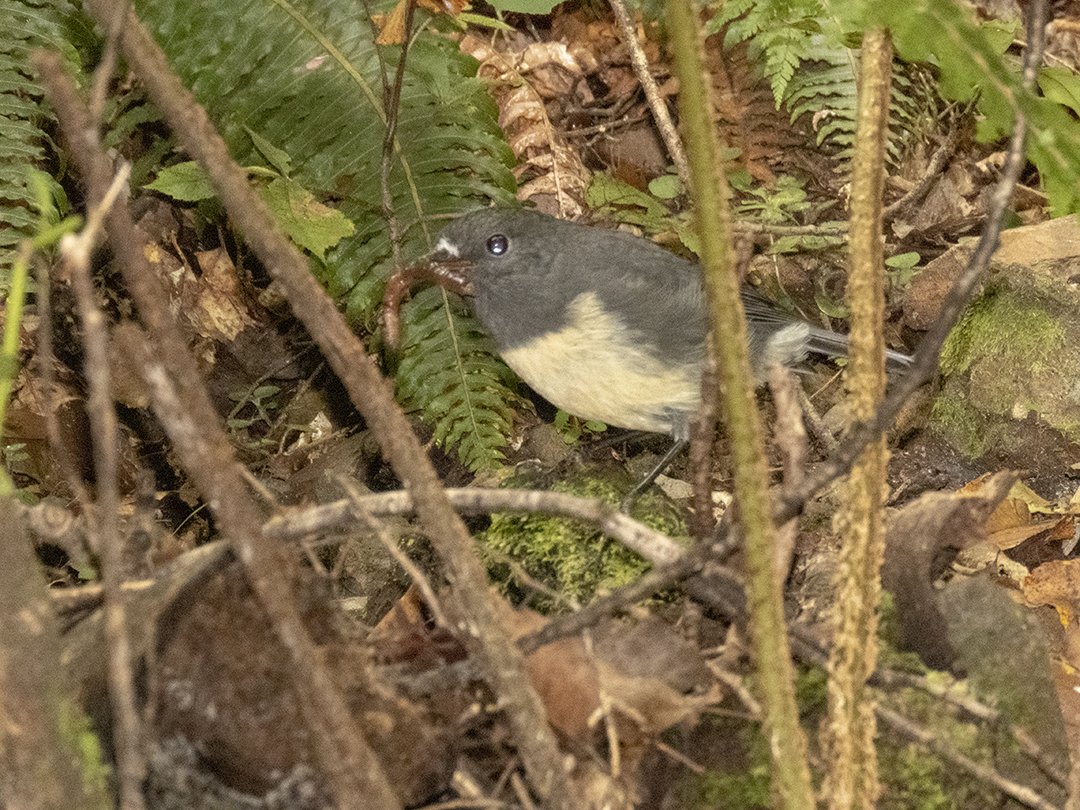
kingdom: Animalia
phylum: Chordata
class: Aves
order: Passeriformes
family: Petroicidae
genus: Petroica
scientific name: Petroica australis
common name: New zealand robin
